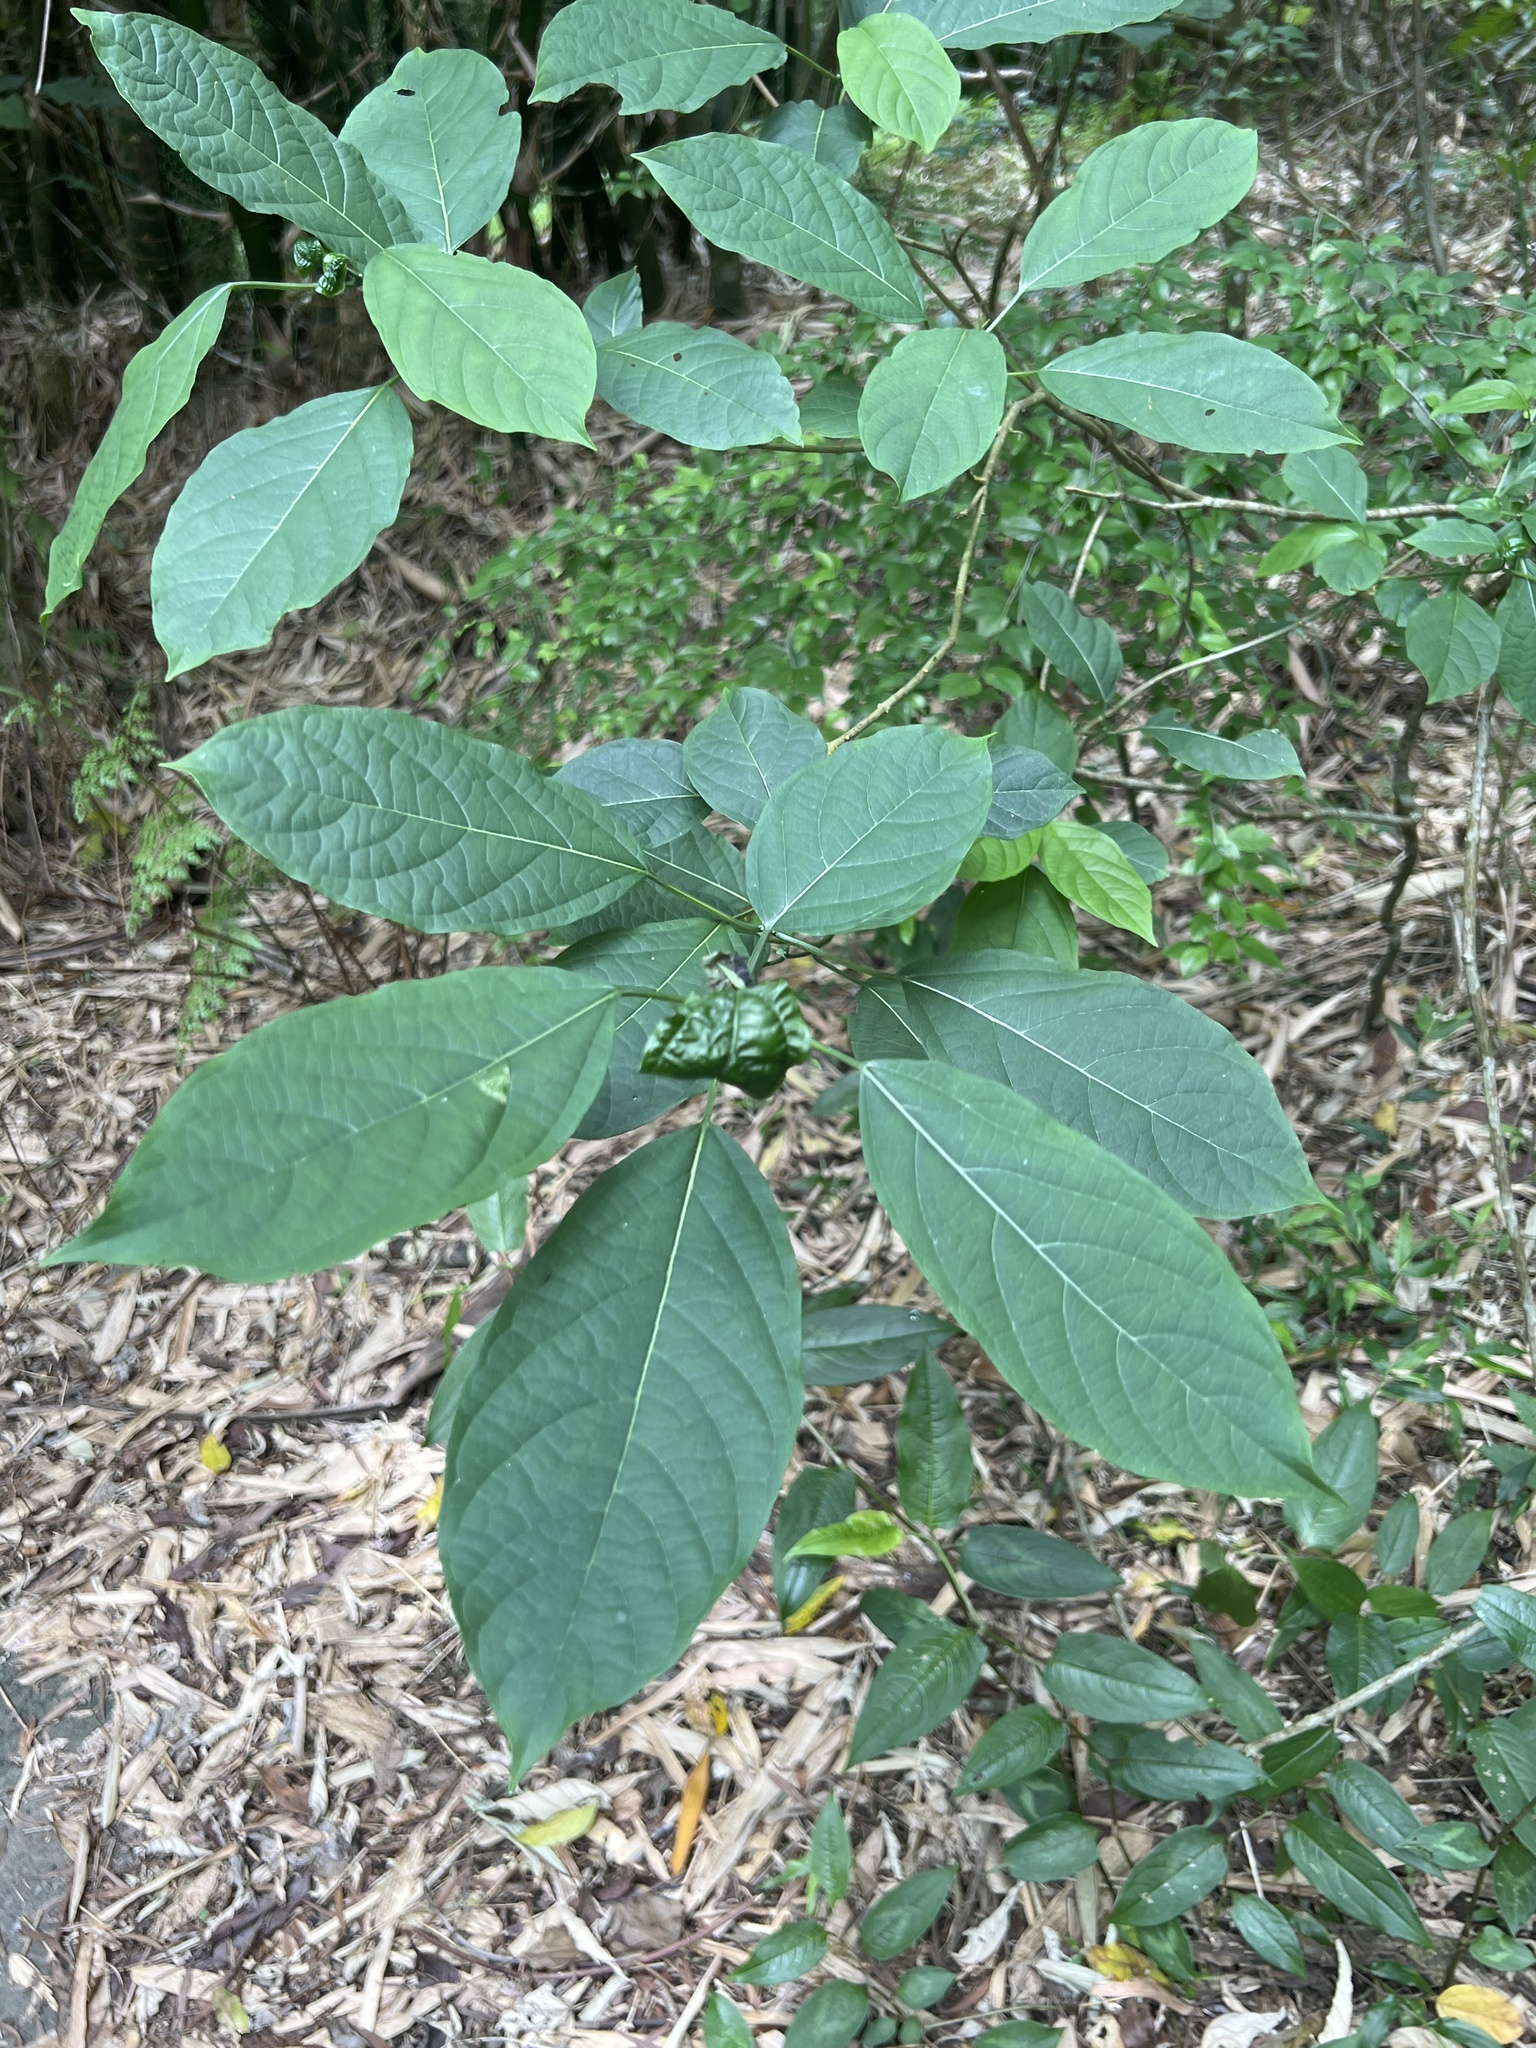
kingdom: Plantae
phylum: Tracheophyta
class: Magnoliopsida
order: Lamiales
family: Lamiaceae
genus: Clerodendrum
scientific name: Clerodendrum cyrtophyllum
